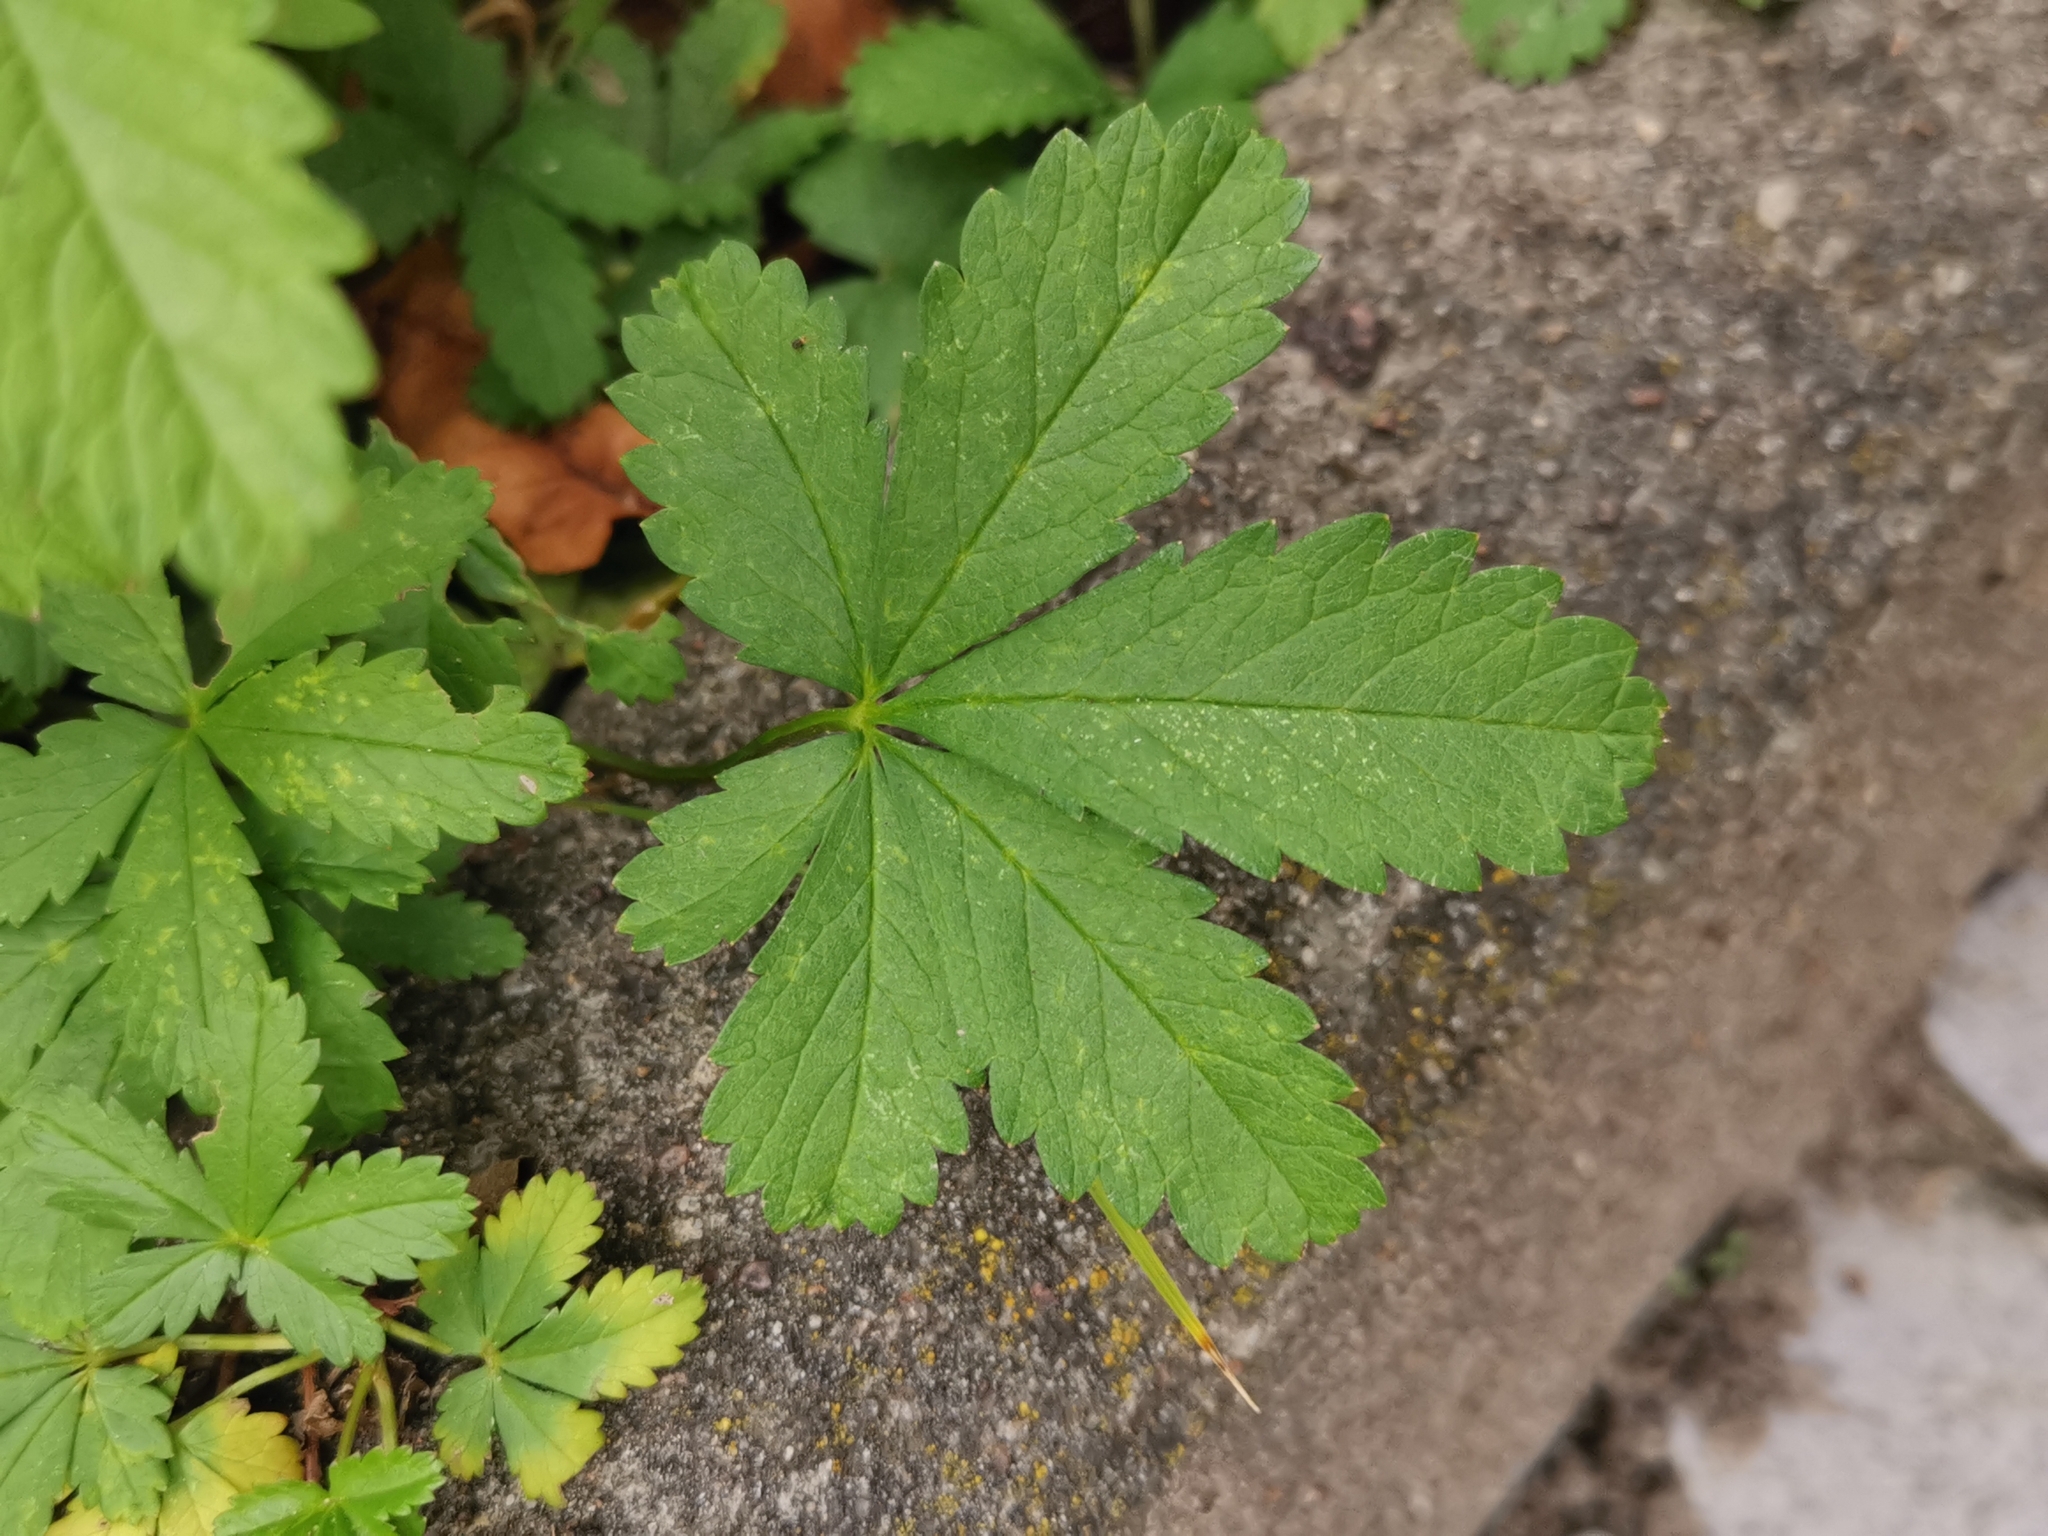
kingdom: Plantae
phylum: Tracheophyta
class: Magnoliopsida
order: Rosales
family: Rosaceae
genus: Potentilla
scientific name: Potentilla reptans
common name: Creeping cinquefoil
